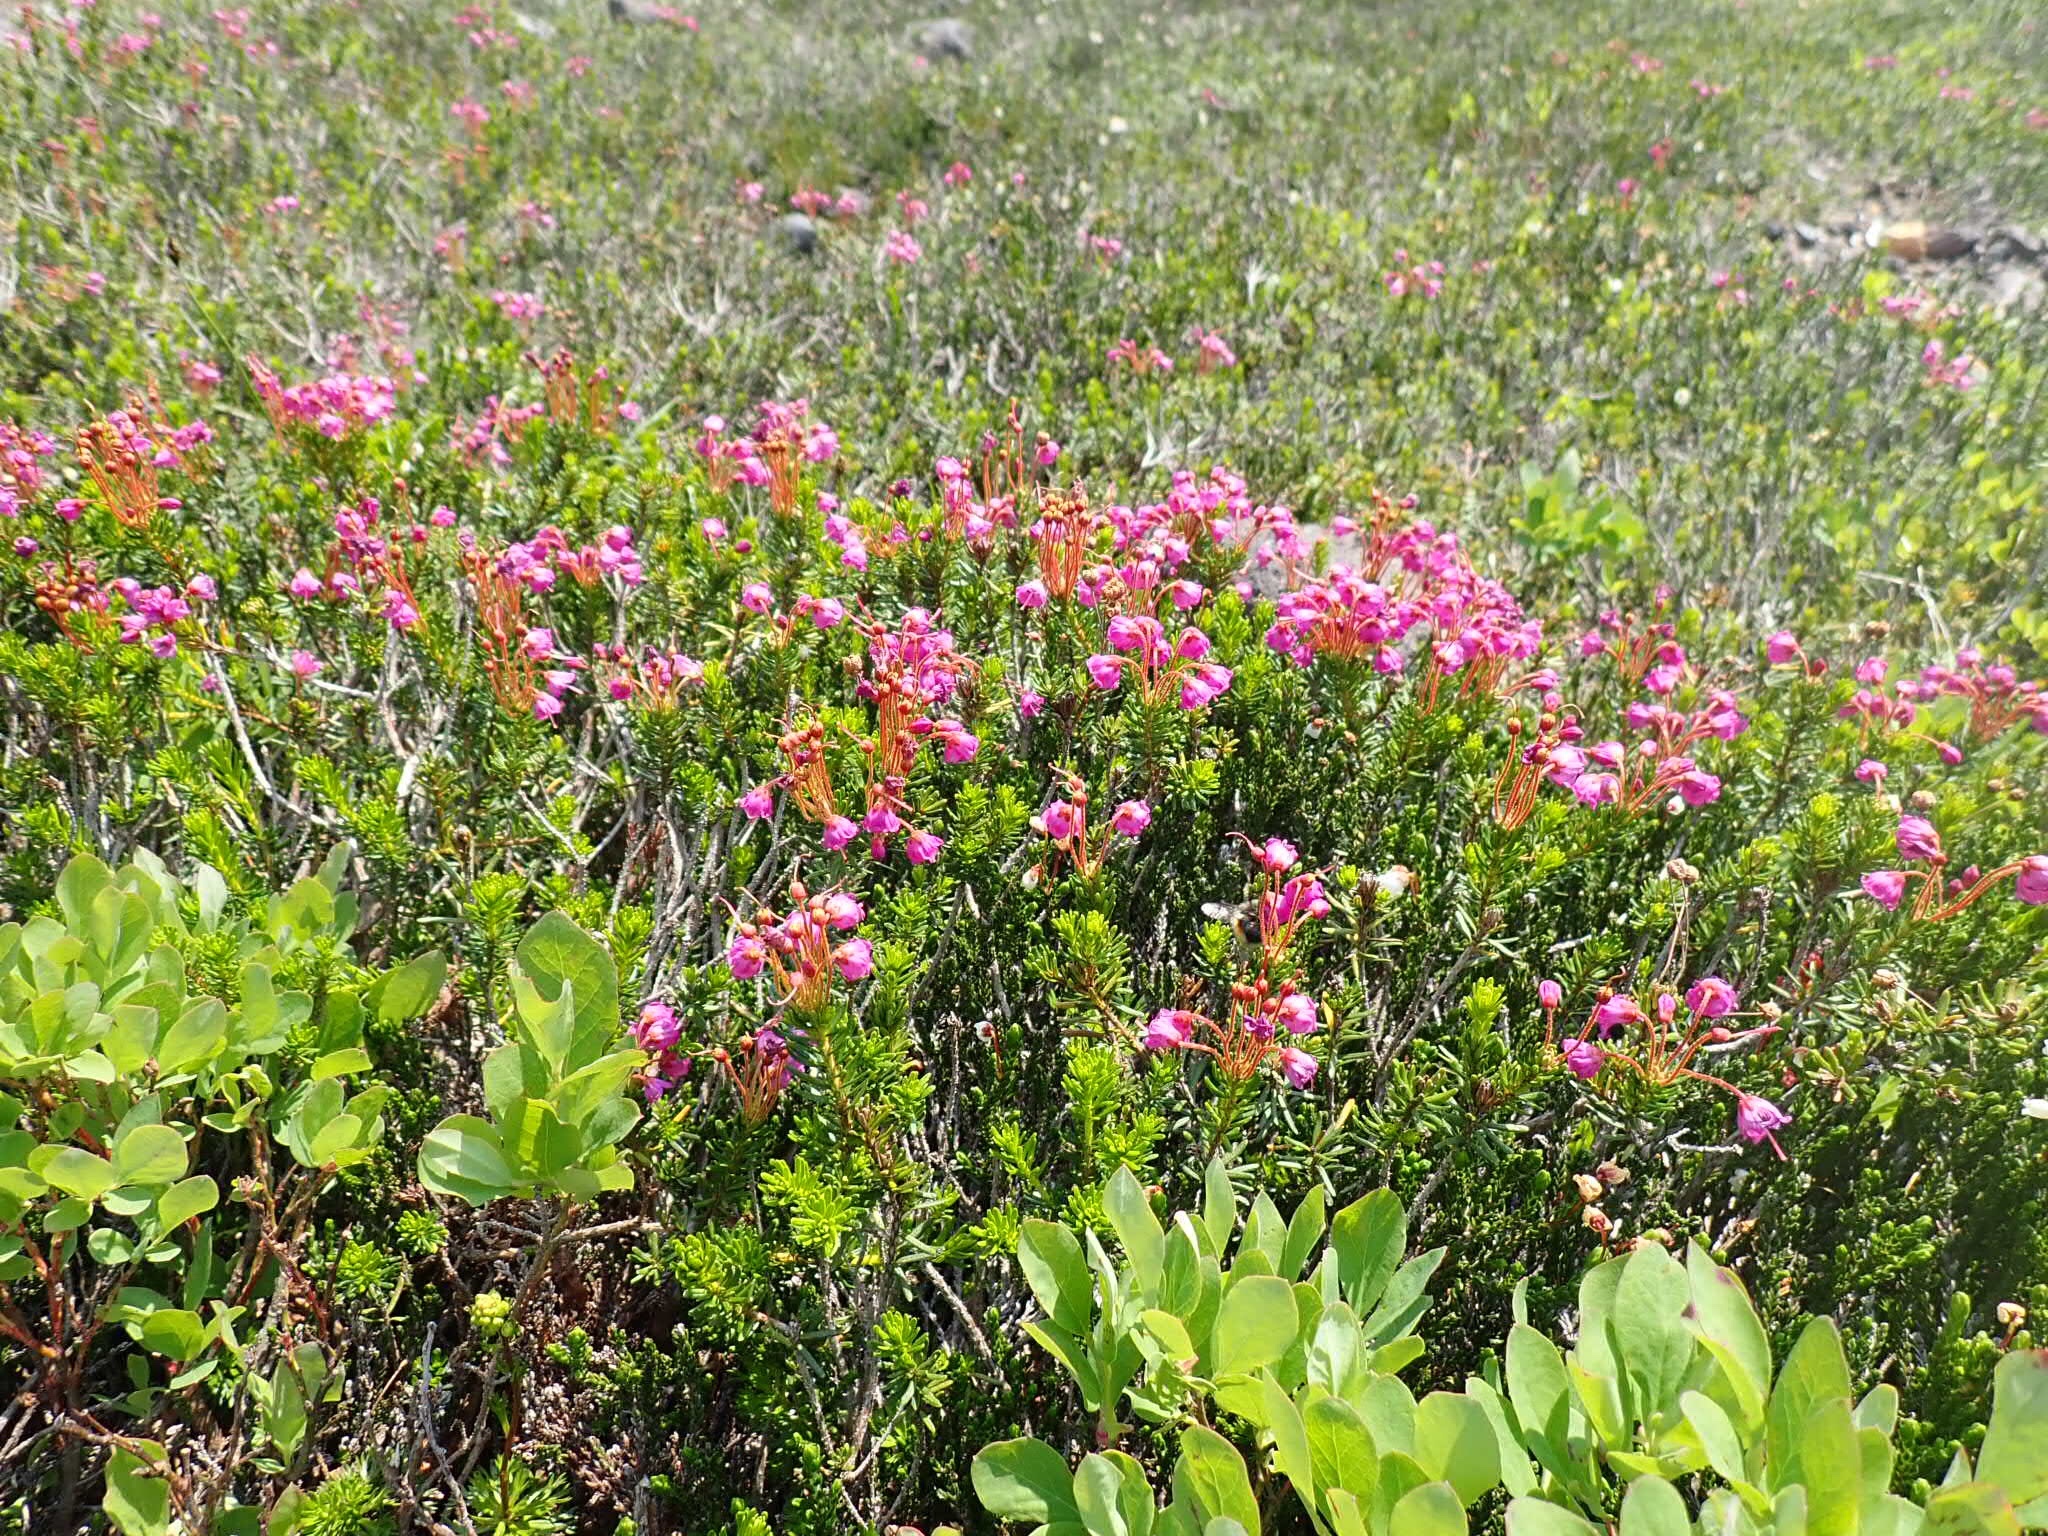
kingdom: Plantae
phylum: Tracheophyta
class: Magnoliopsida
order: Ericales
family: Ericaceae
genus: Phyllodoce
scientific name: Phyllodoce empetriformis
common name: Pink mountain heather
